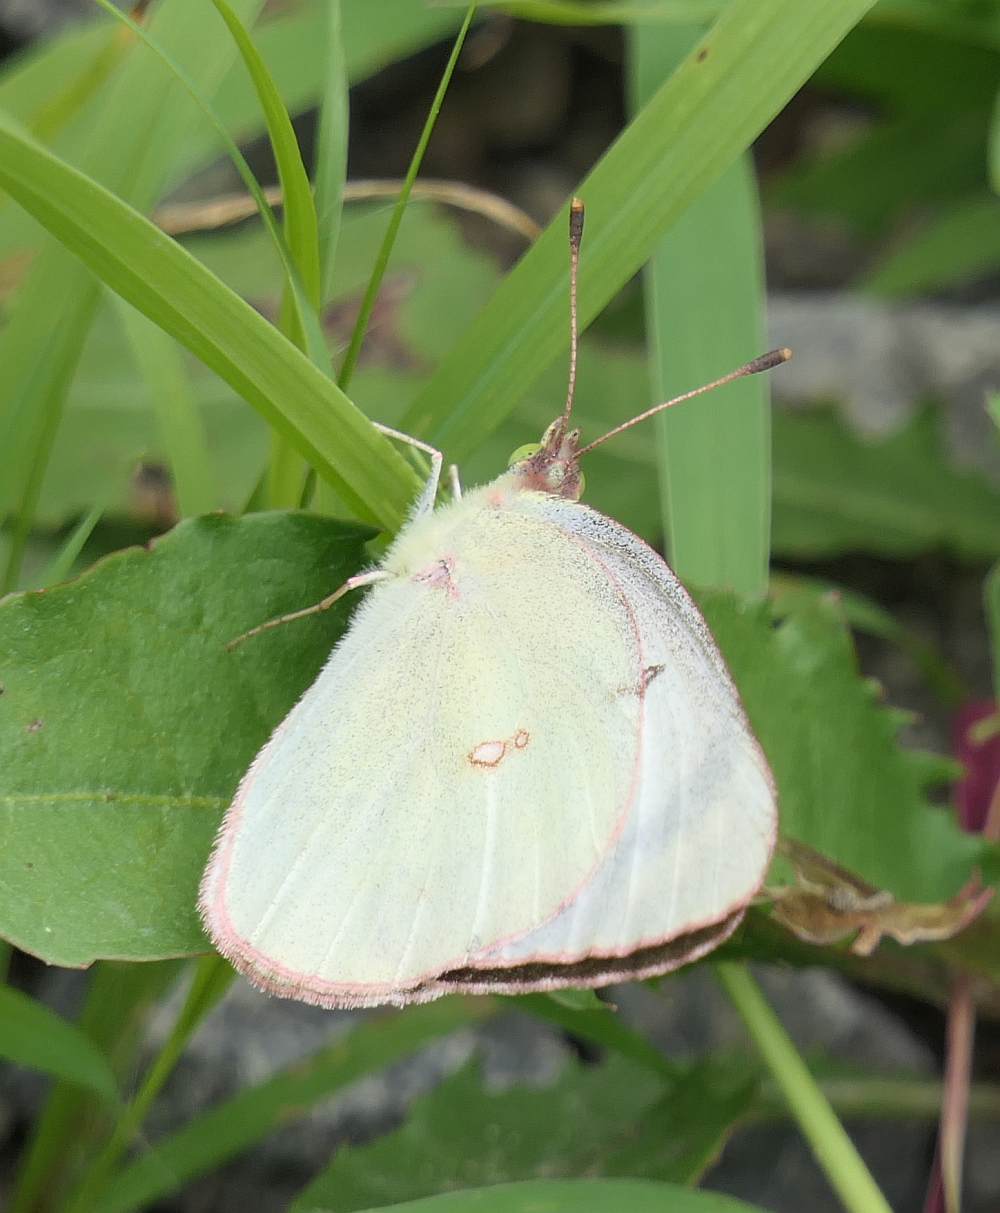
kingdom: Animalia
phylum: Arthropoda
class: Insecta
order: Lepidoptera
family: Pieridae
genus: Colias
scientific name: Colias philodice
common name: Clouded sulphur
